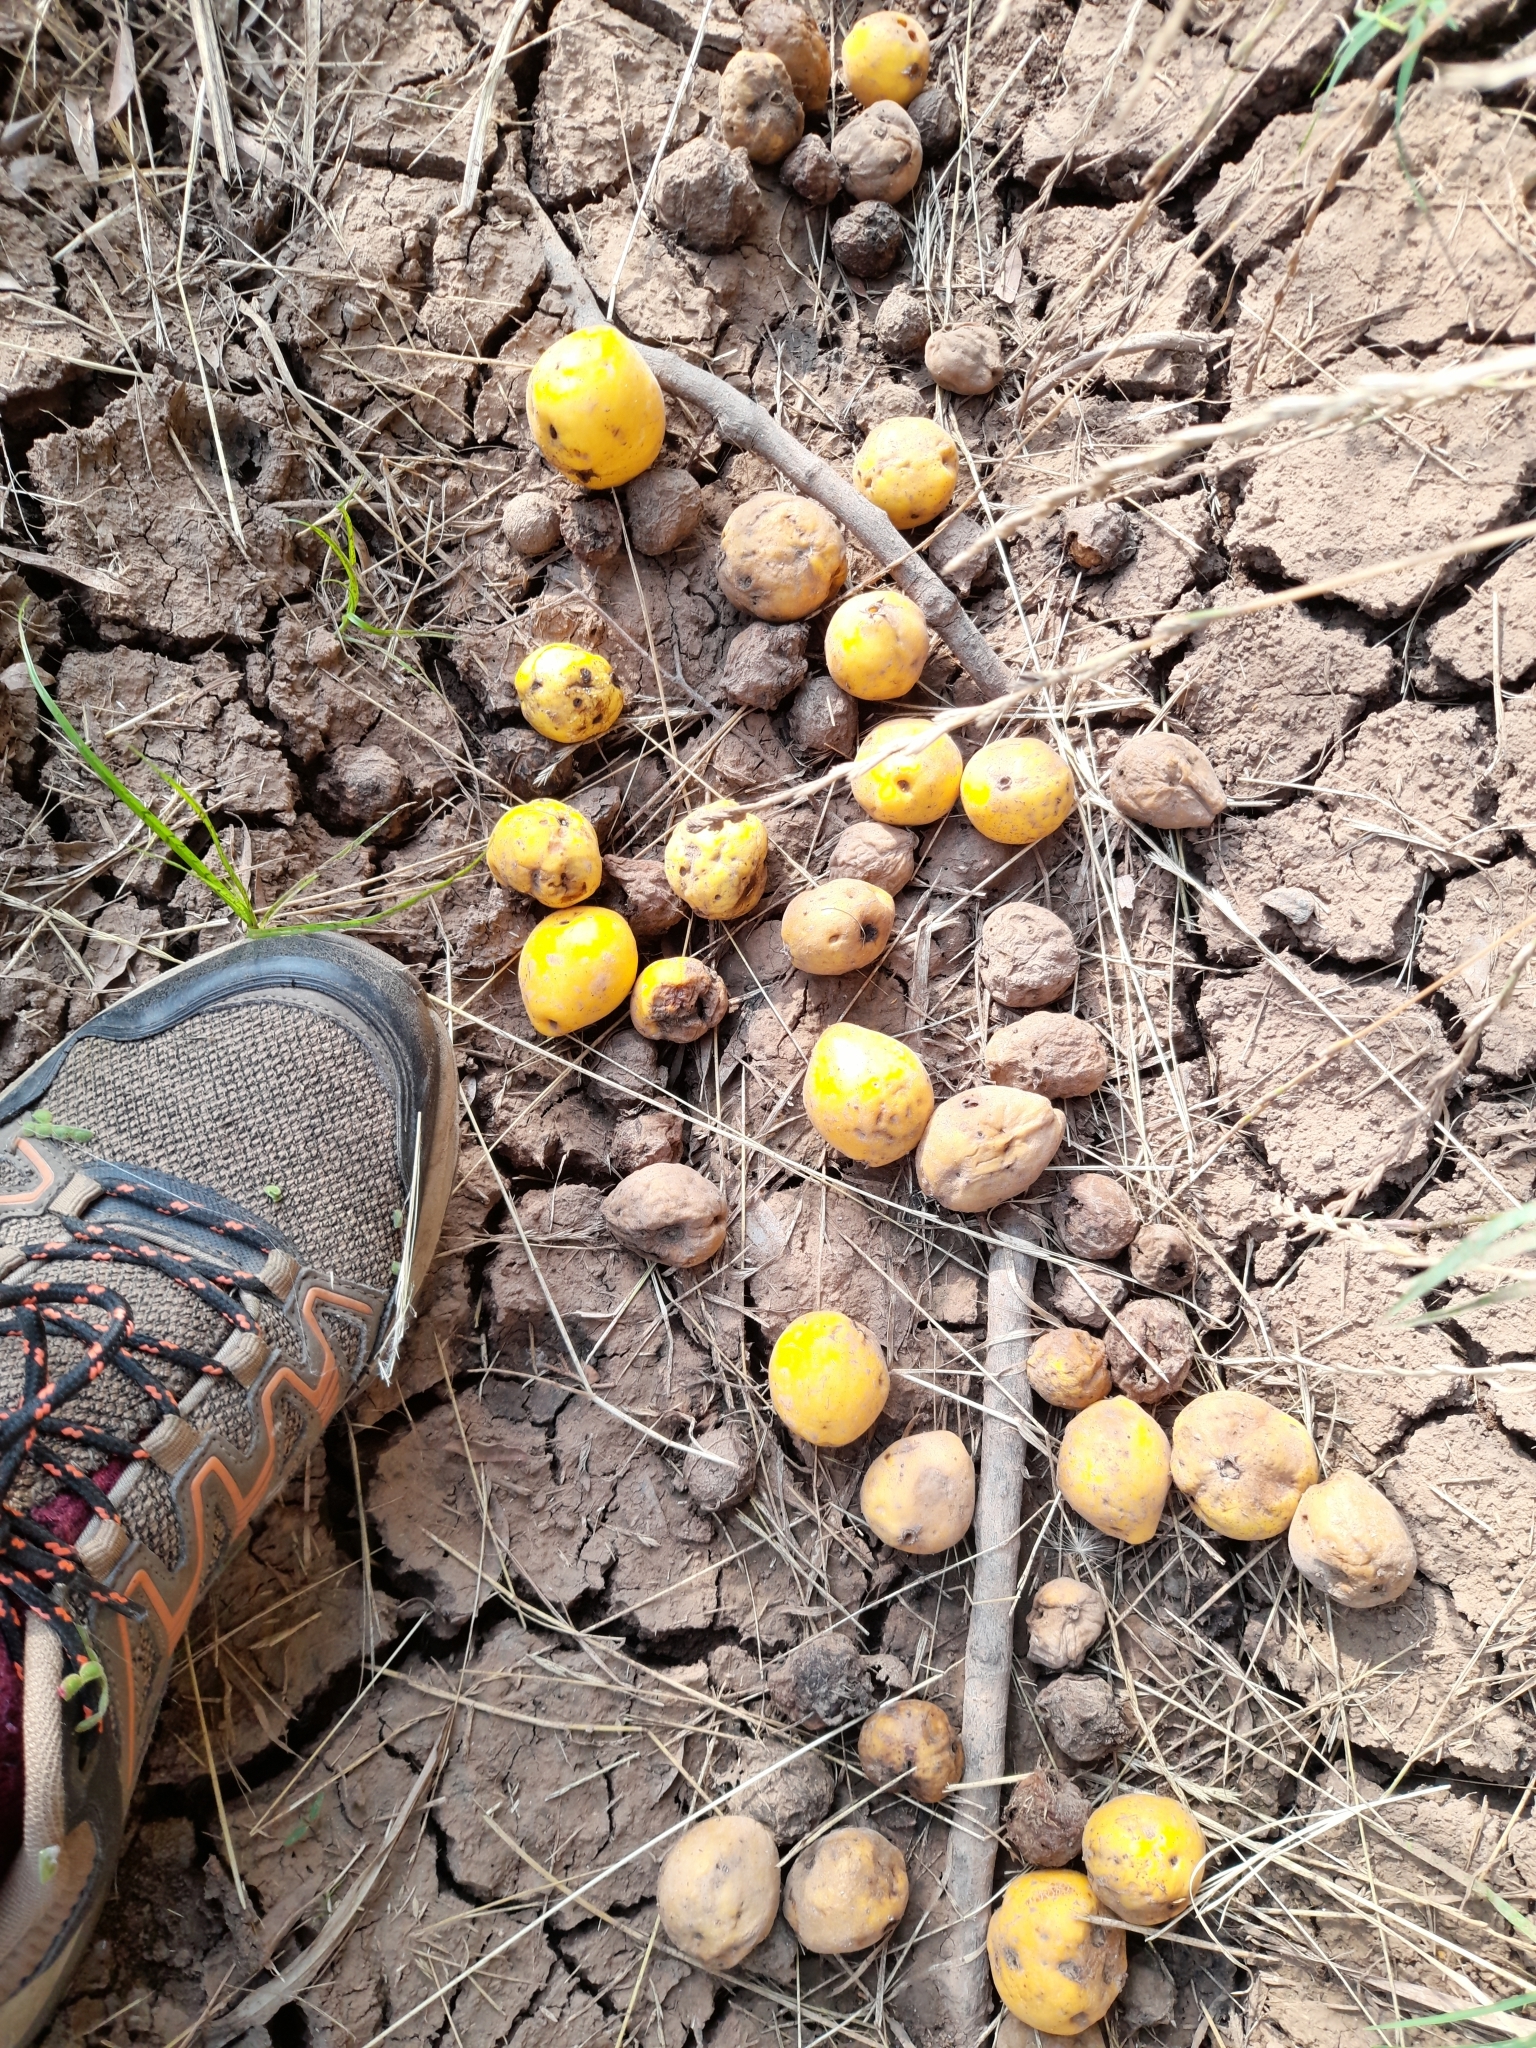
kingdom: Plantae
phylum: Tracheophyta
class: Magnoliopsida
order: Myrtales
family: Myrtaceae
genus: Eugenia
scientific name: Eugenia myrcianthes
